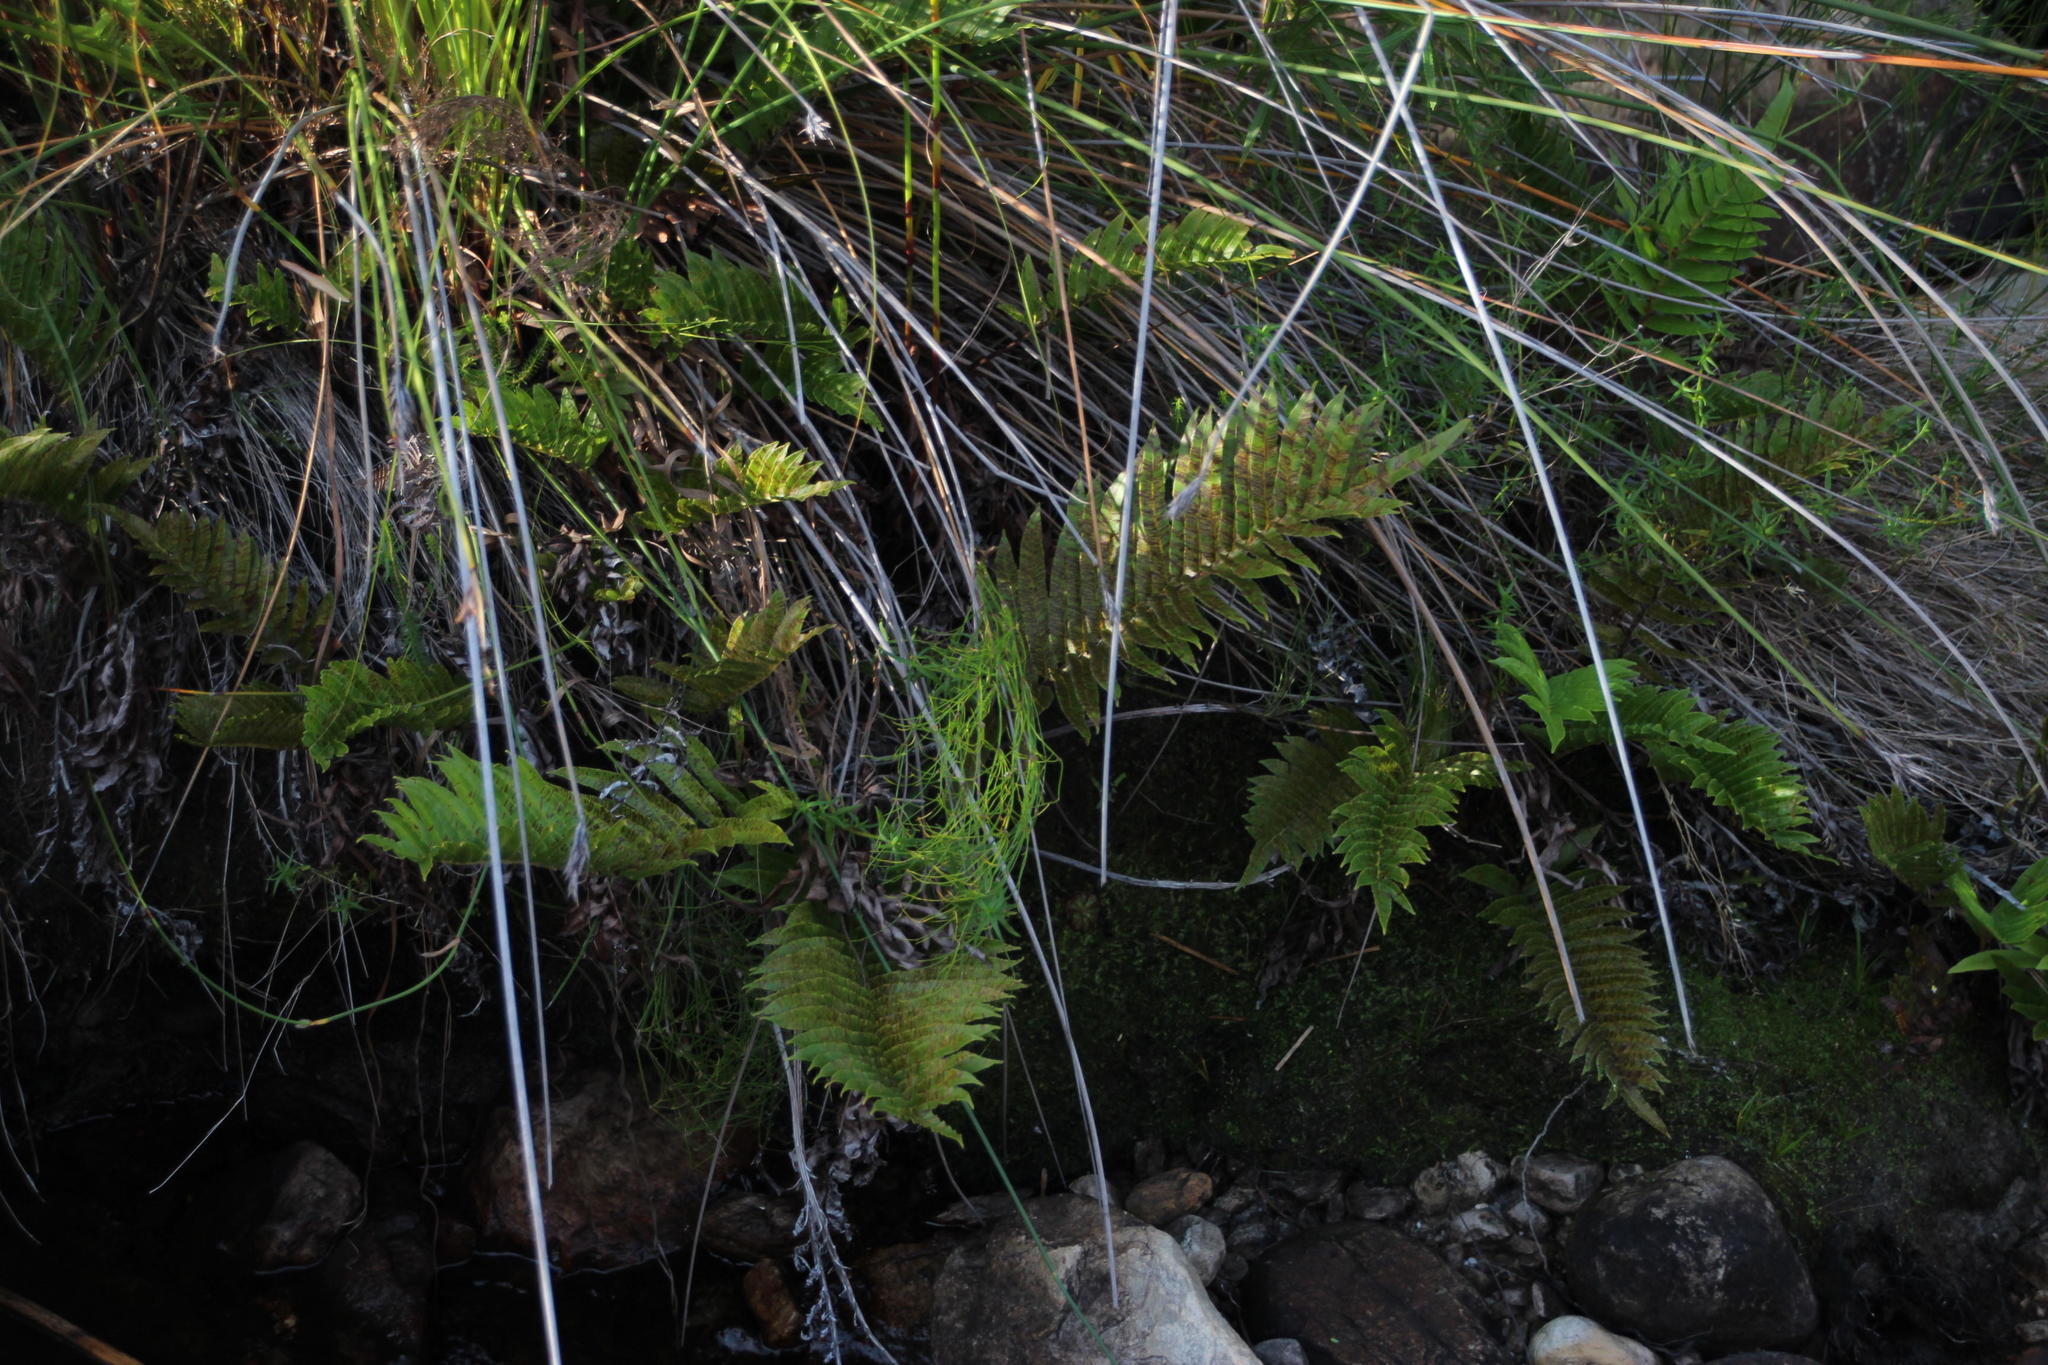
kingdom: Plantae
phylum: Tracheophyta
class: Polypodiopsida
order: Polypodiales
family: Blechnaceae
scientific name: Blechnaceae
